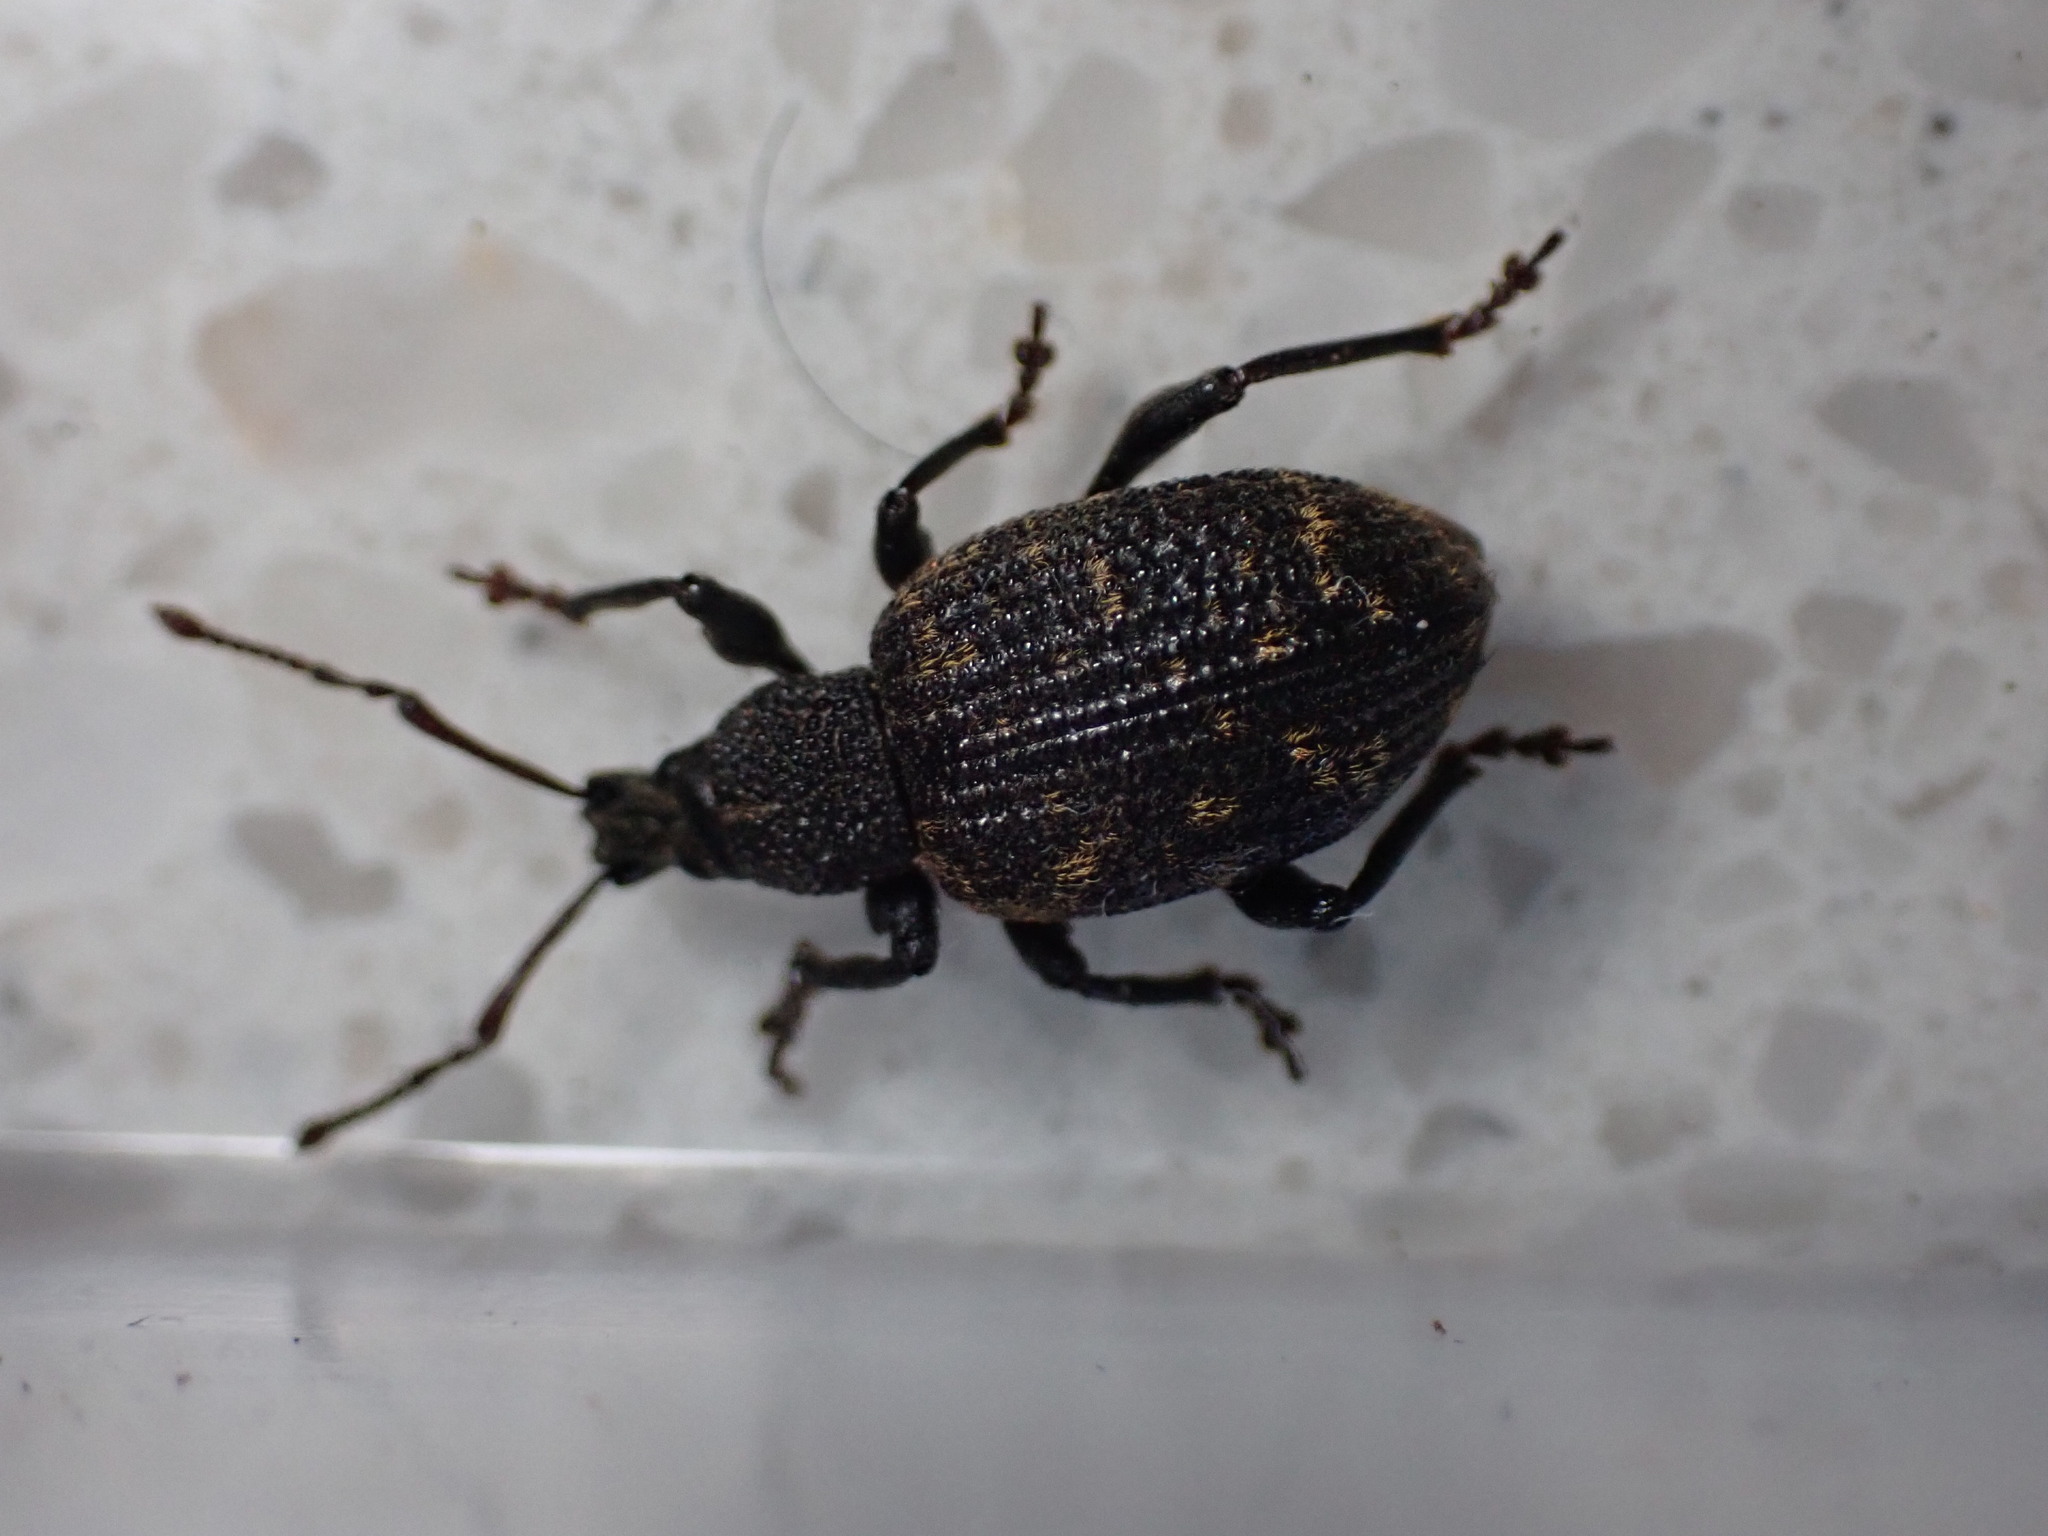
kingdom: Animalia
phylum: Arthropoda
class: Insecta
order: Coleoptera
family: Curculionidae
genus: Otiorhynchus
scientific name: Otiorhynchus sulcatus
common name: Black vine weevil
